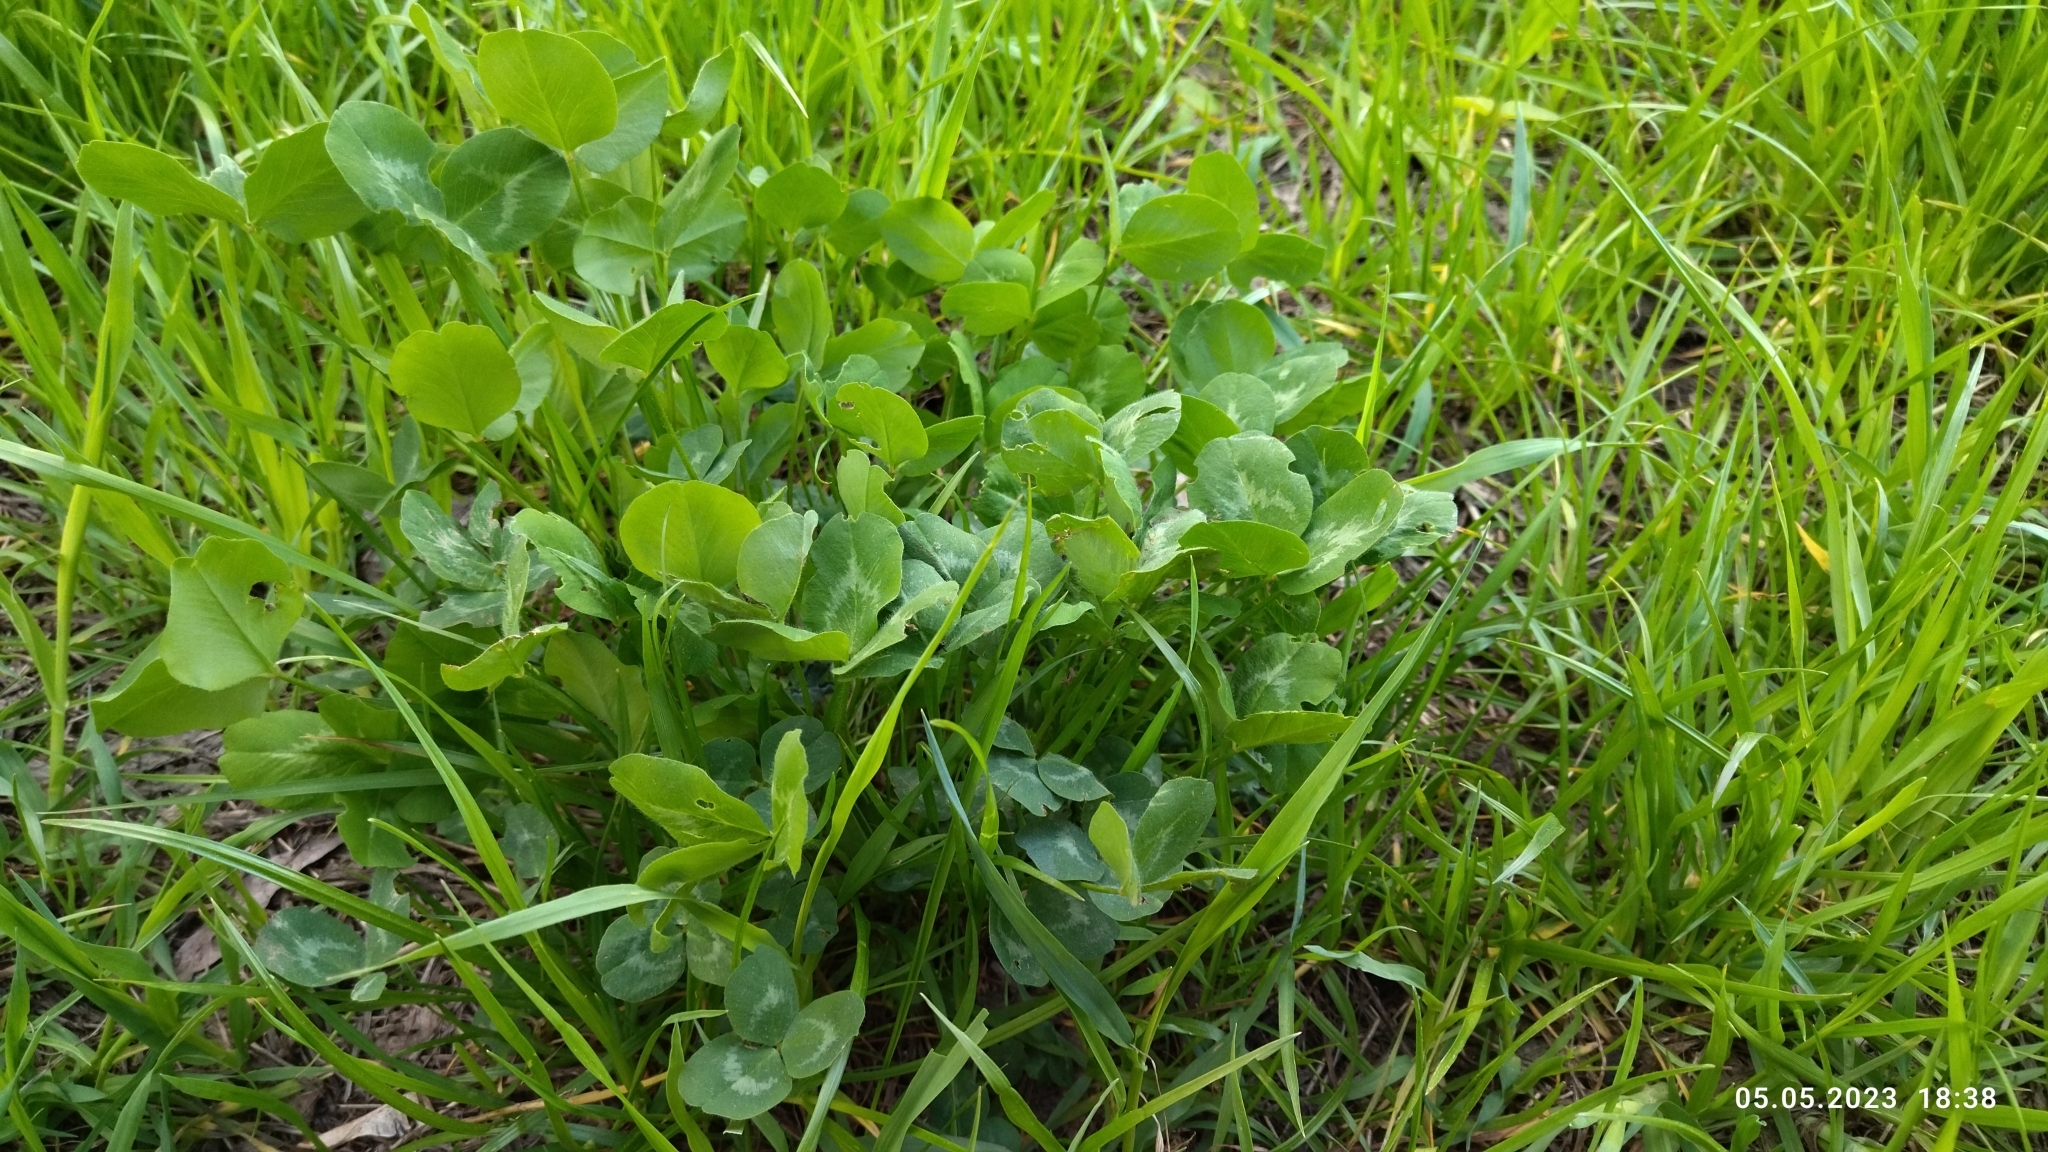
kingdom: Plantae
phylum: Tracheophyta
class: Magnoliopsida
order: Fabales
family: Fabaceae
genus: Trifolium
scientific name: Trifolium pratense
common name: Red clover
